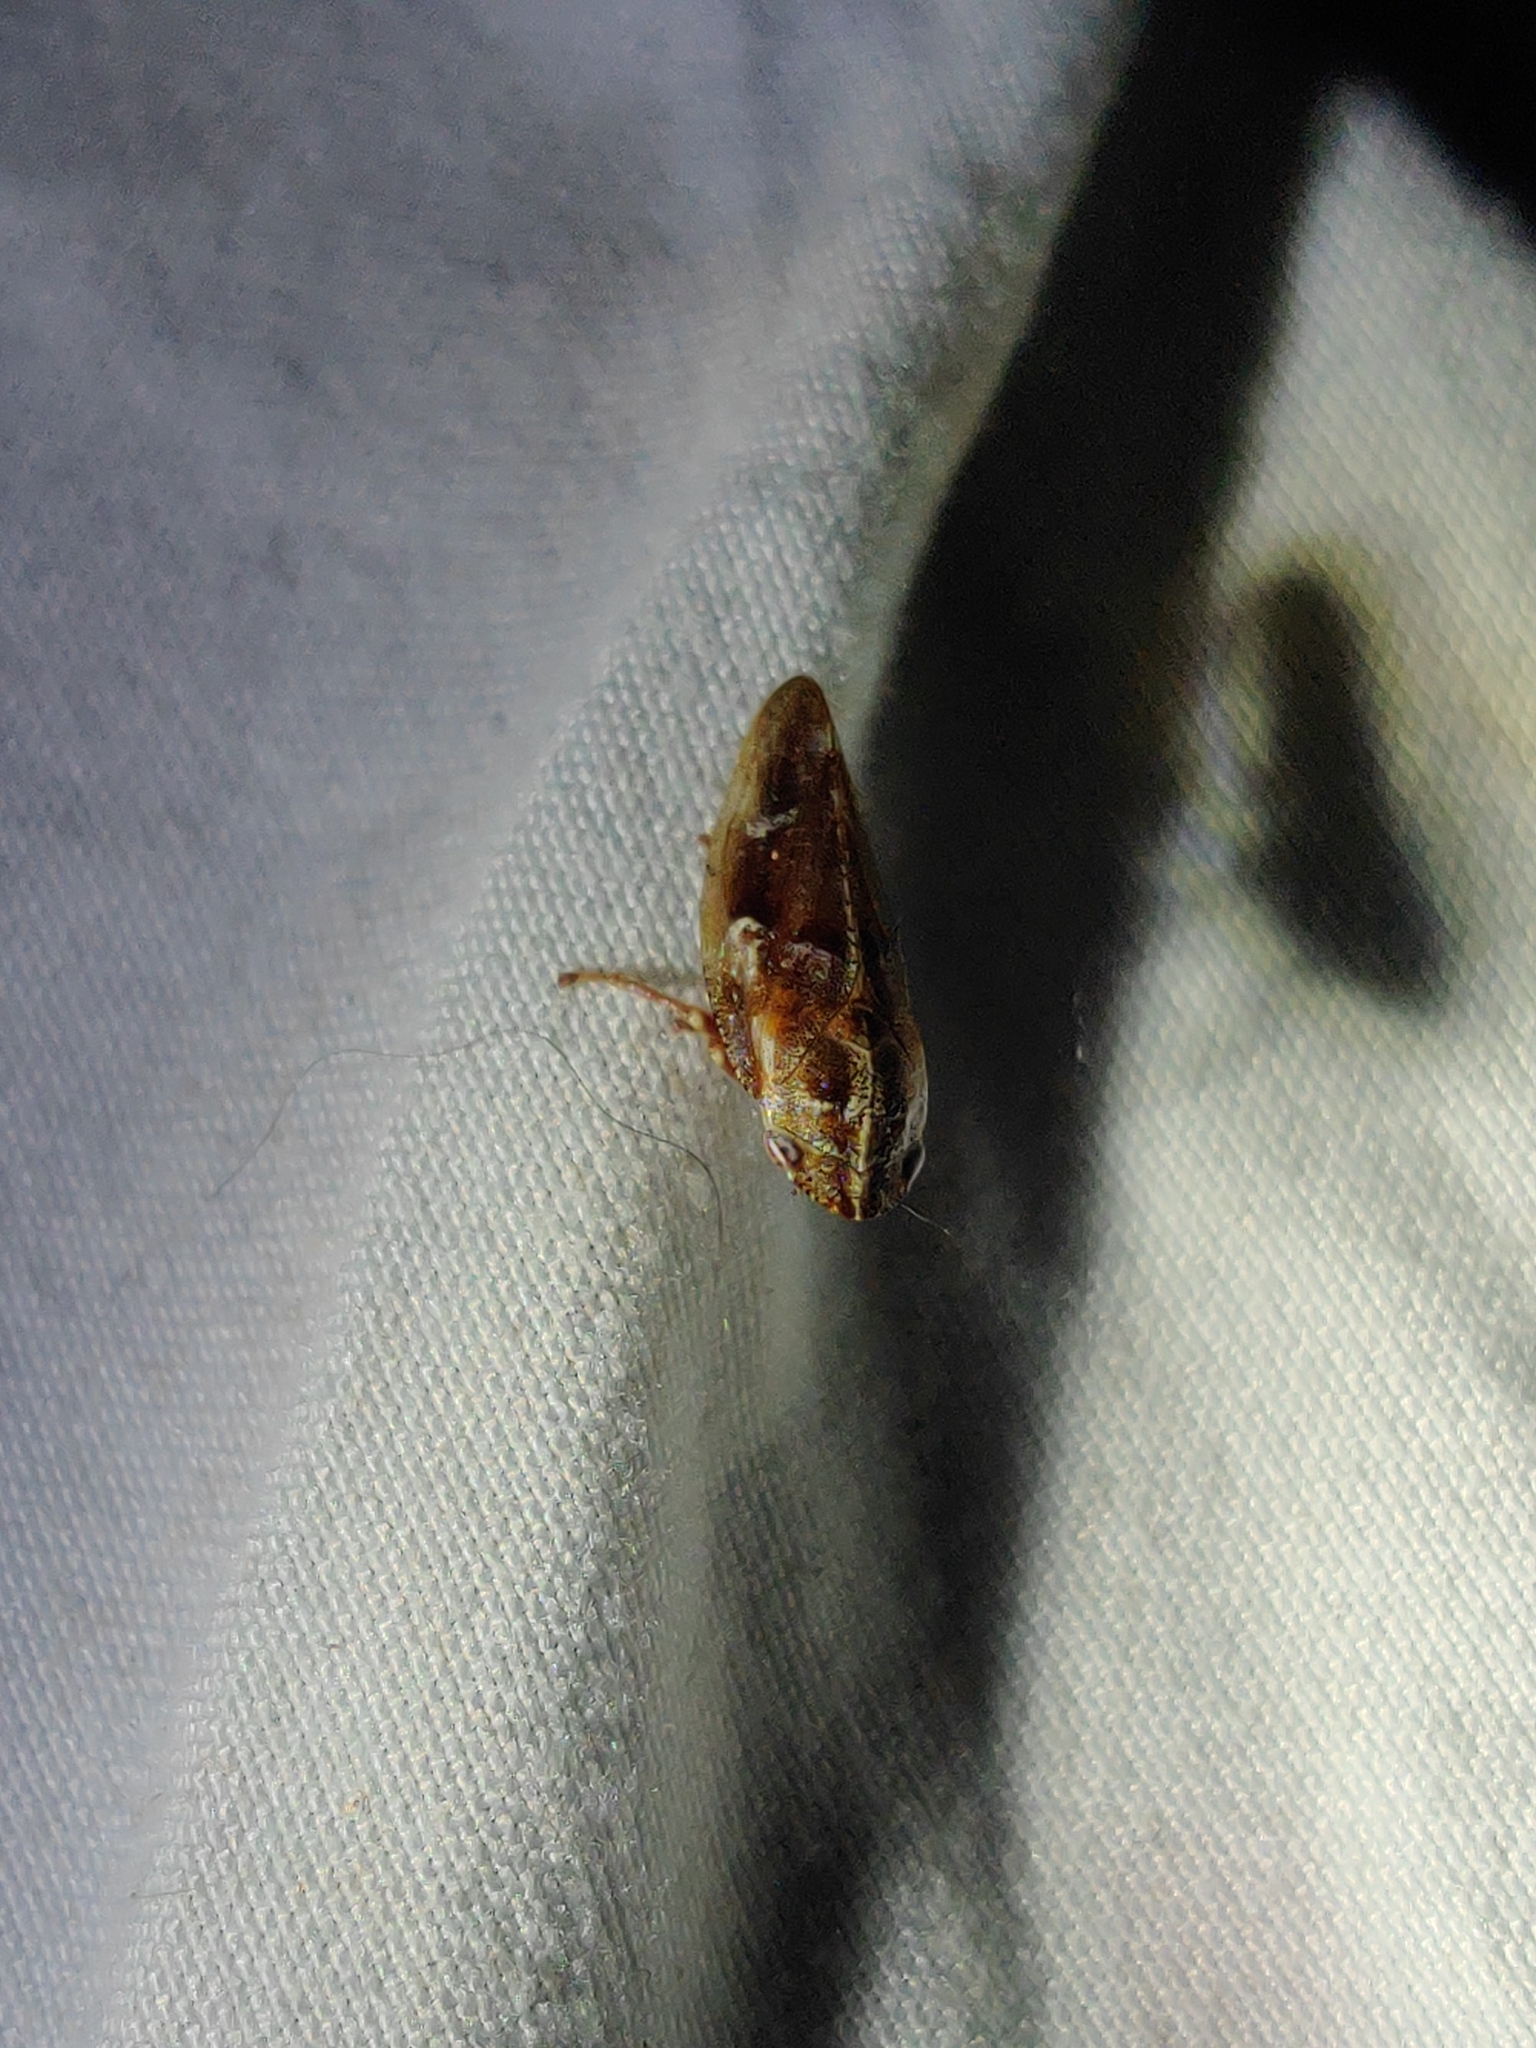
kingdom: Animalia
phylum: Arthropoda
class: Insecta
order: Hemiptera
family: Aphrophoridae
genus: Aphrophora
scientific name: Aphrophora saratogensis
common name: Saratoga spittlebug
